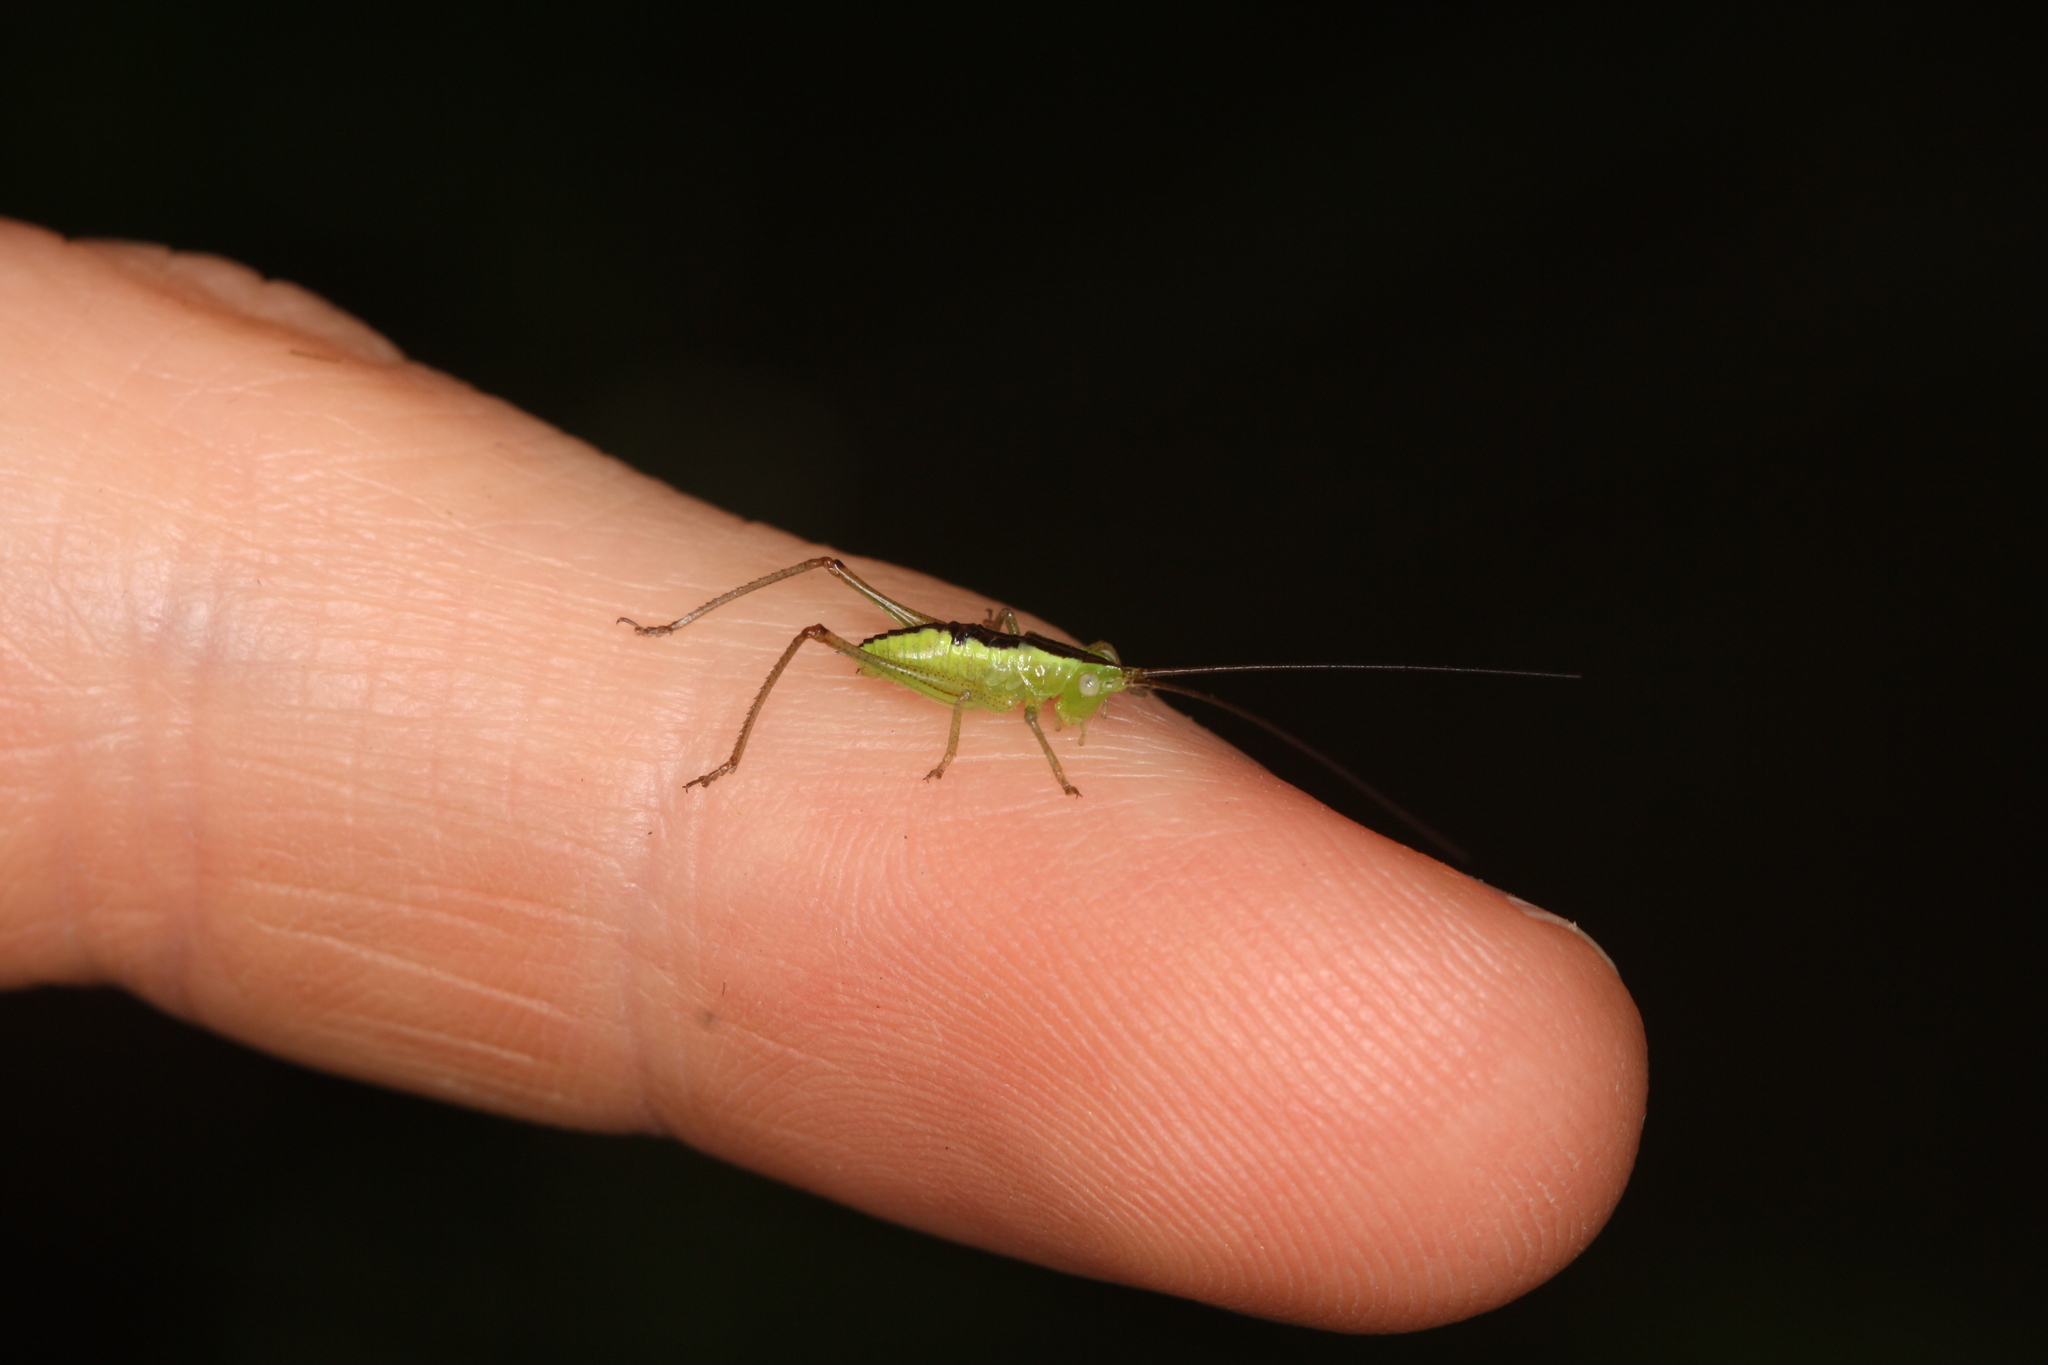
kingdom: Animalia
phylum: Arthropoda
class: Insecta
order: Orthoptera
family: Tettigoniidae
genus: Conocephalus
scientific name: Conocephalus fuscus
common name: Long-winged conehead
